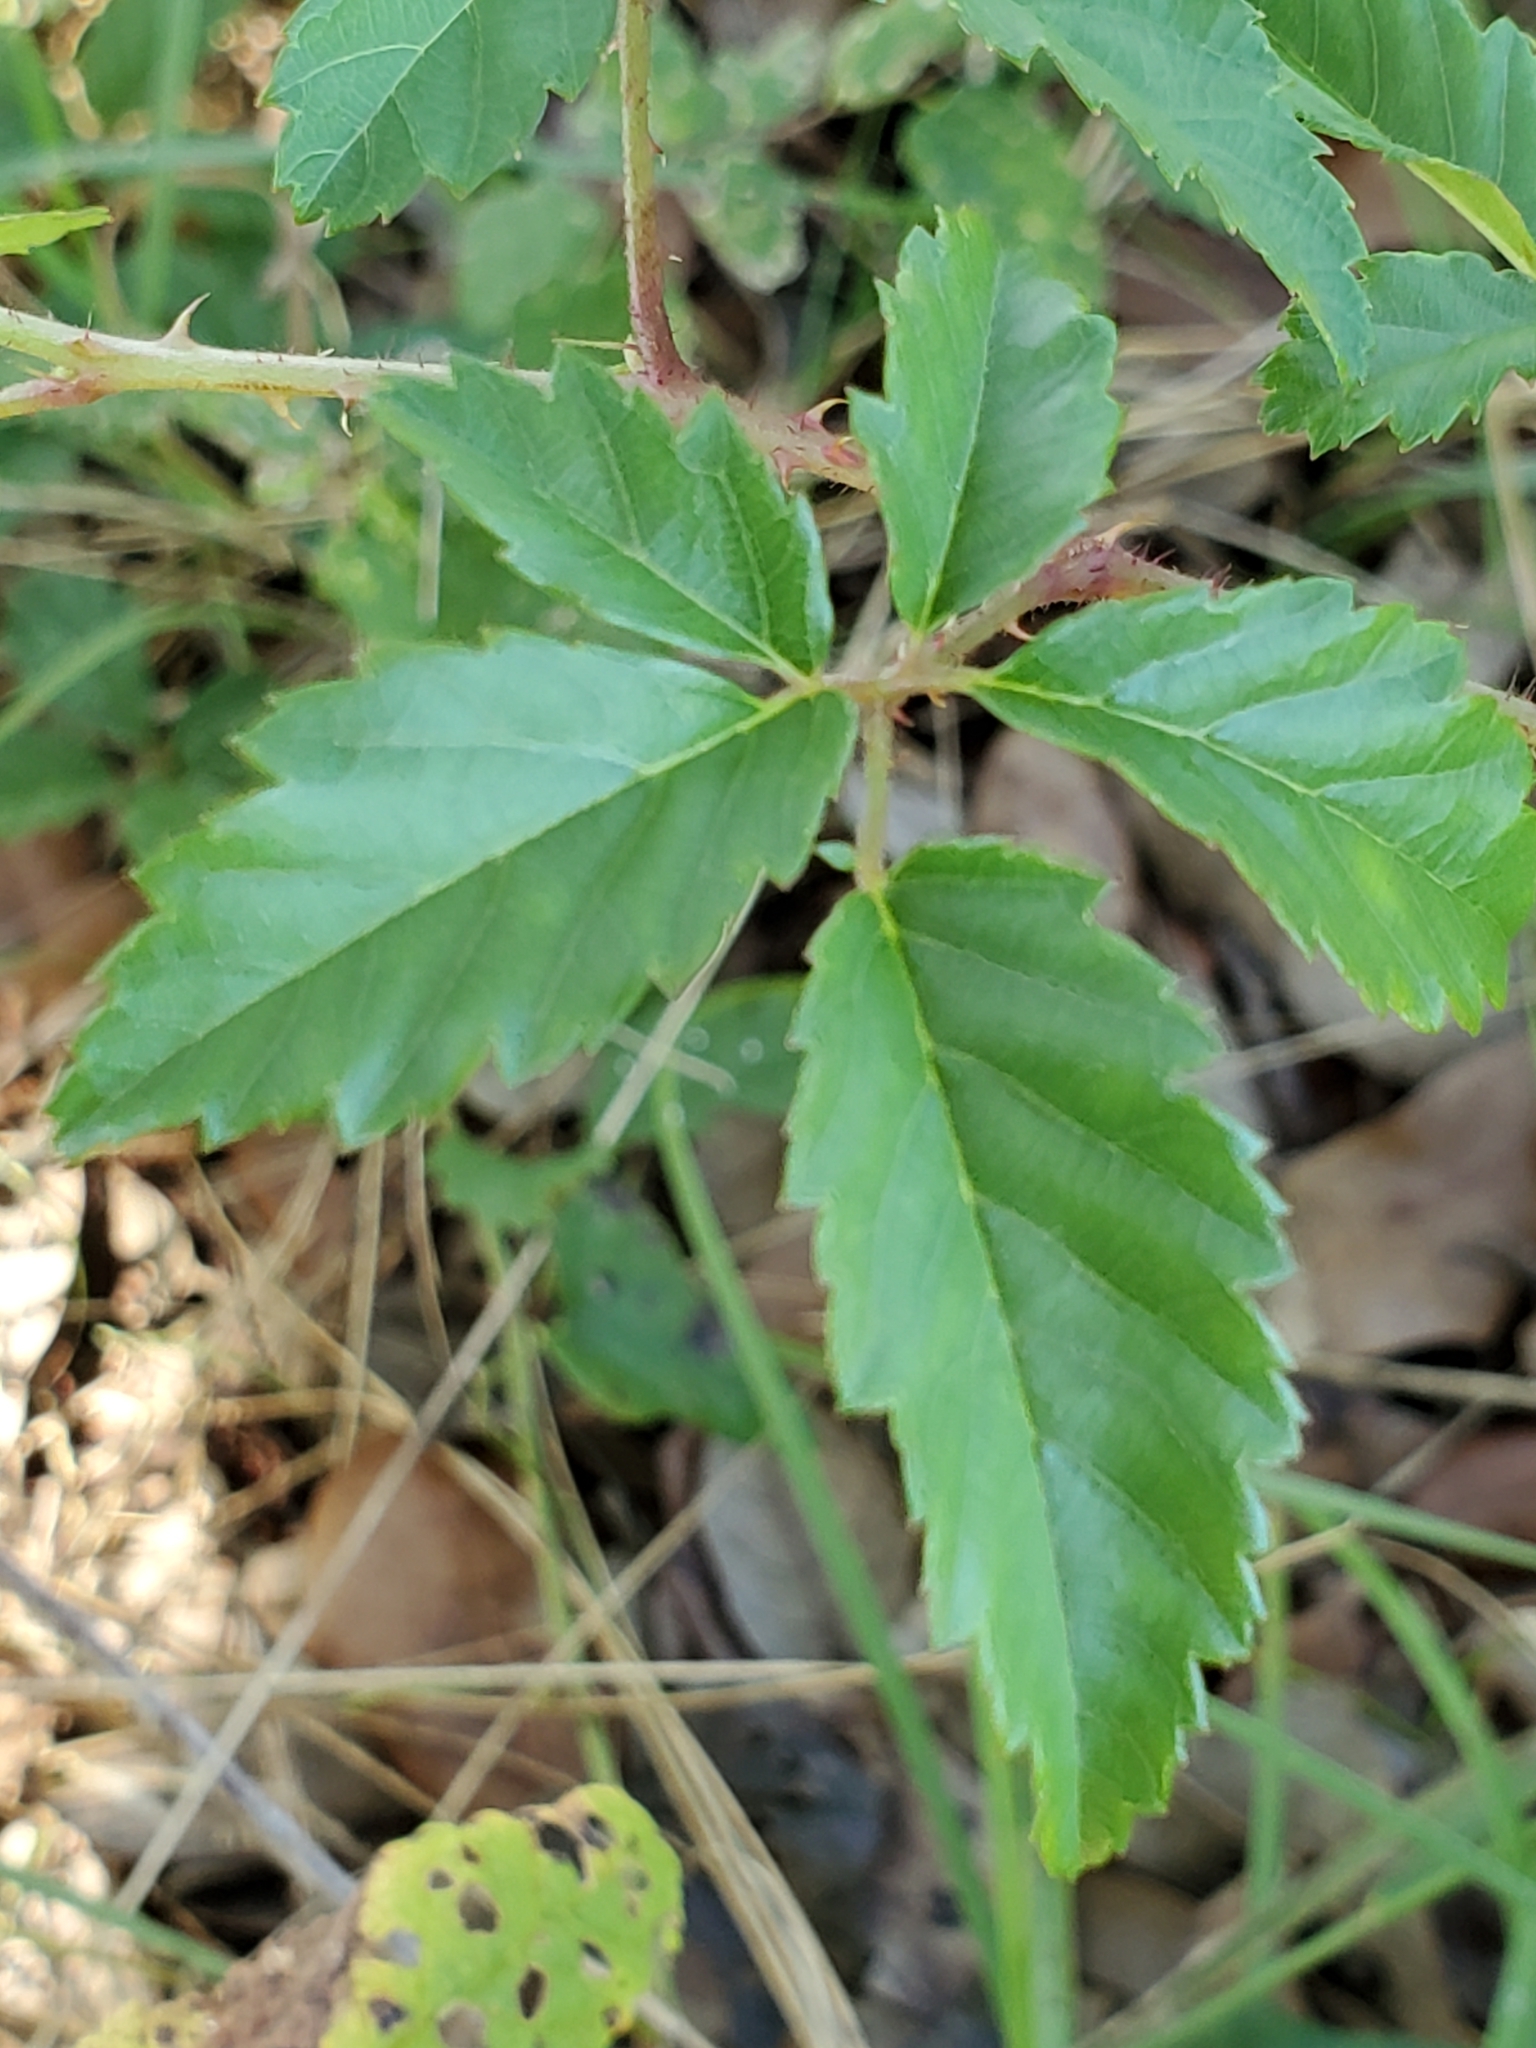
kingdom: Plantae
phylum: Tracheophyta
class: Magnoliopsida
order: Rosales
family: Rosaceae
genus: Rubus
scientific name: Rubus trivialis
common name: Southern dewberry
